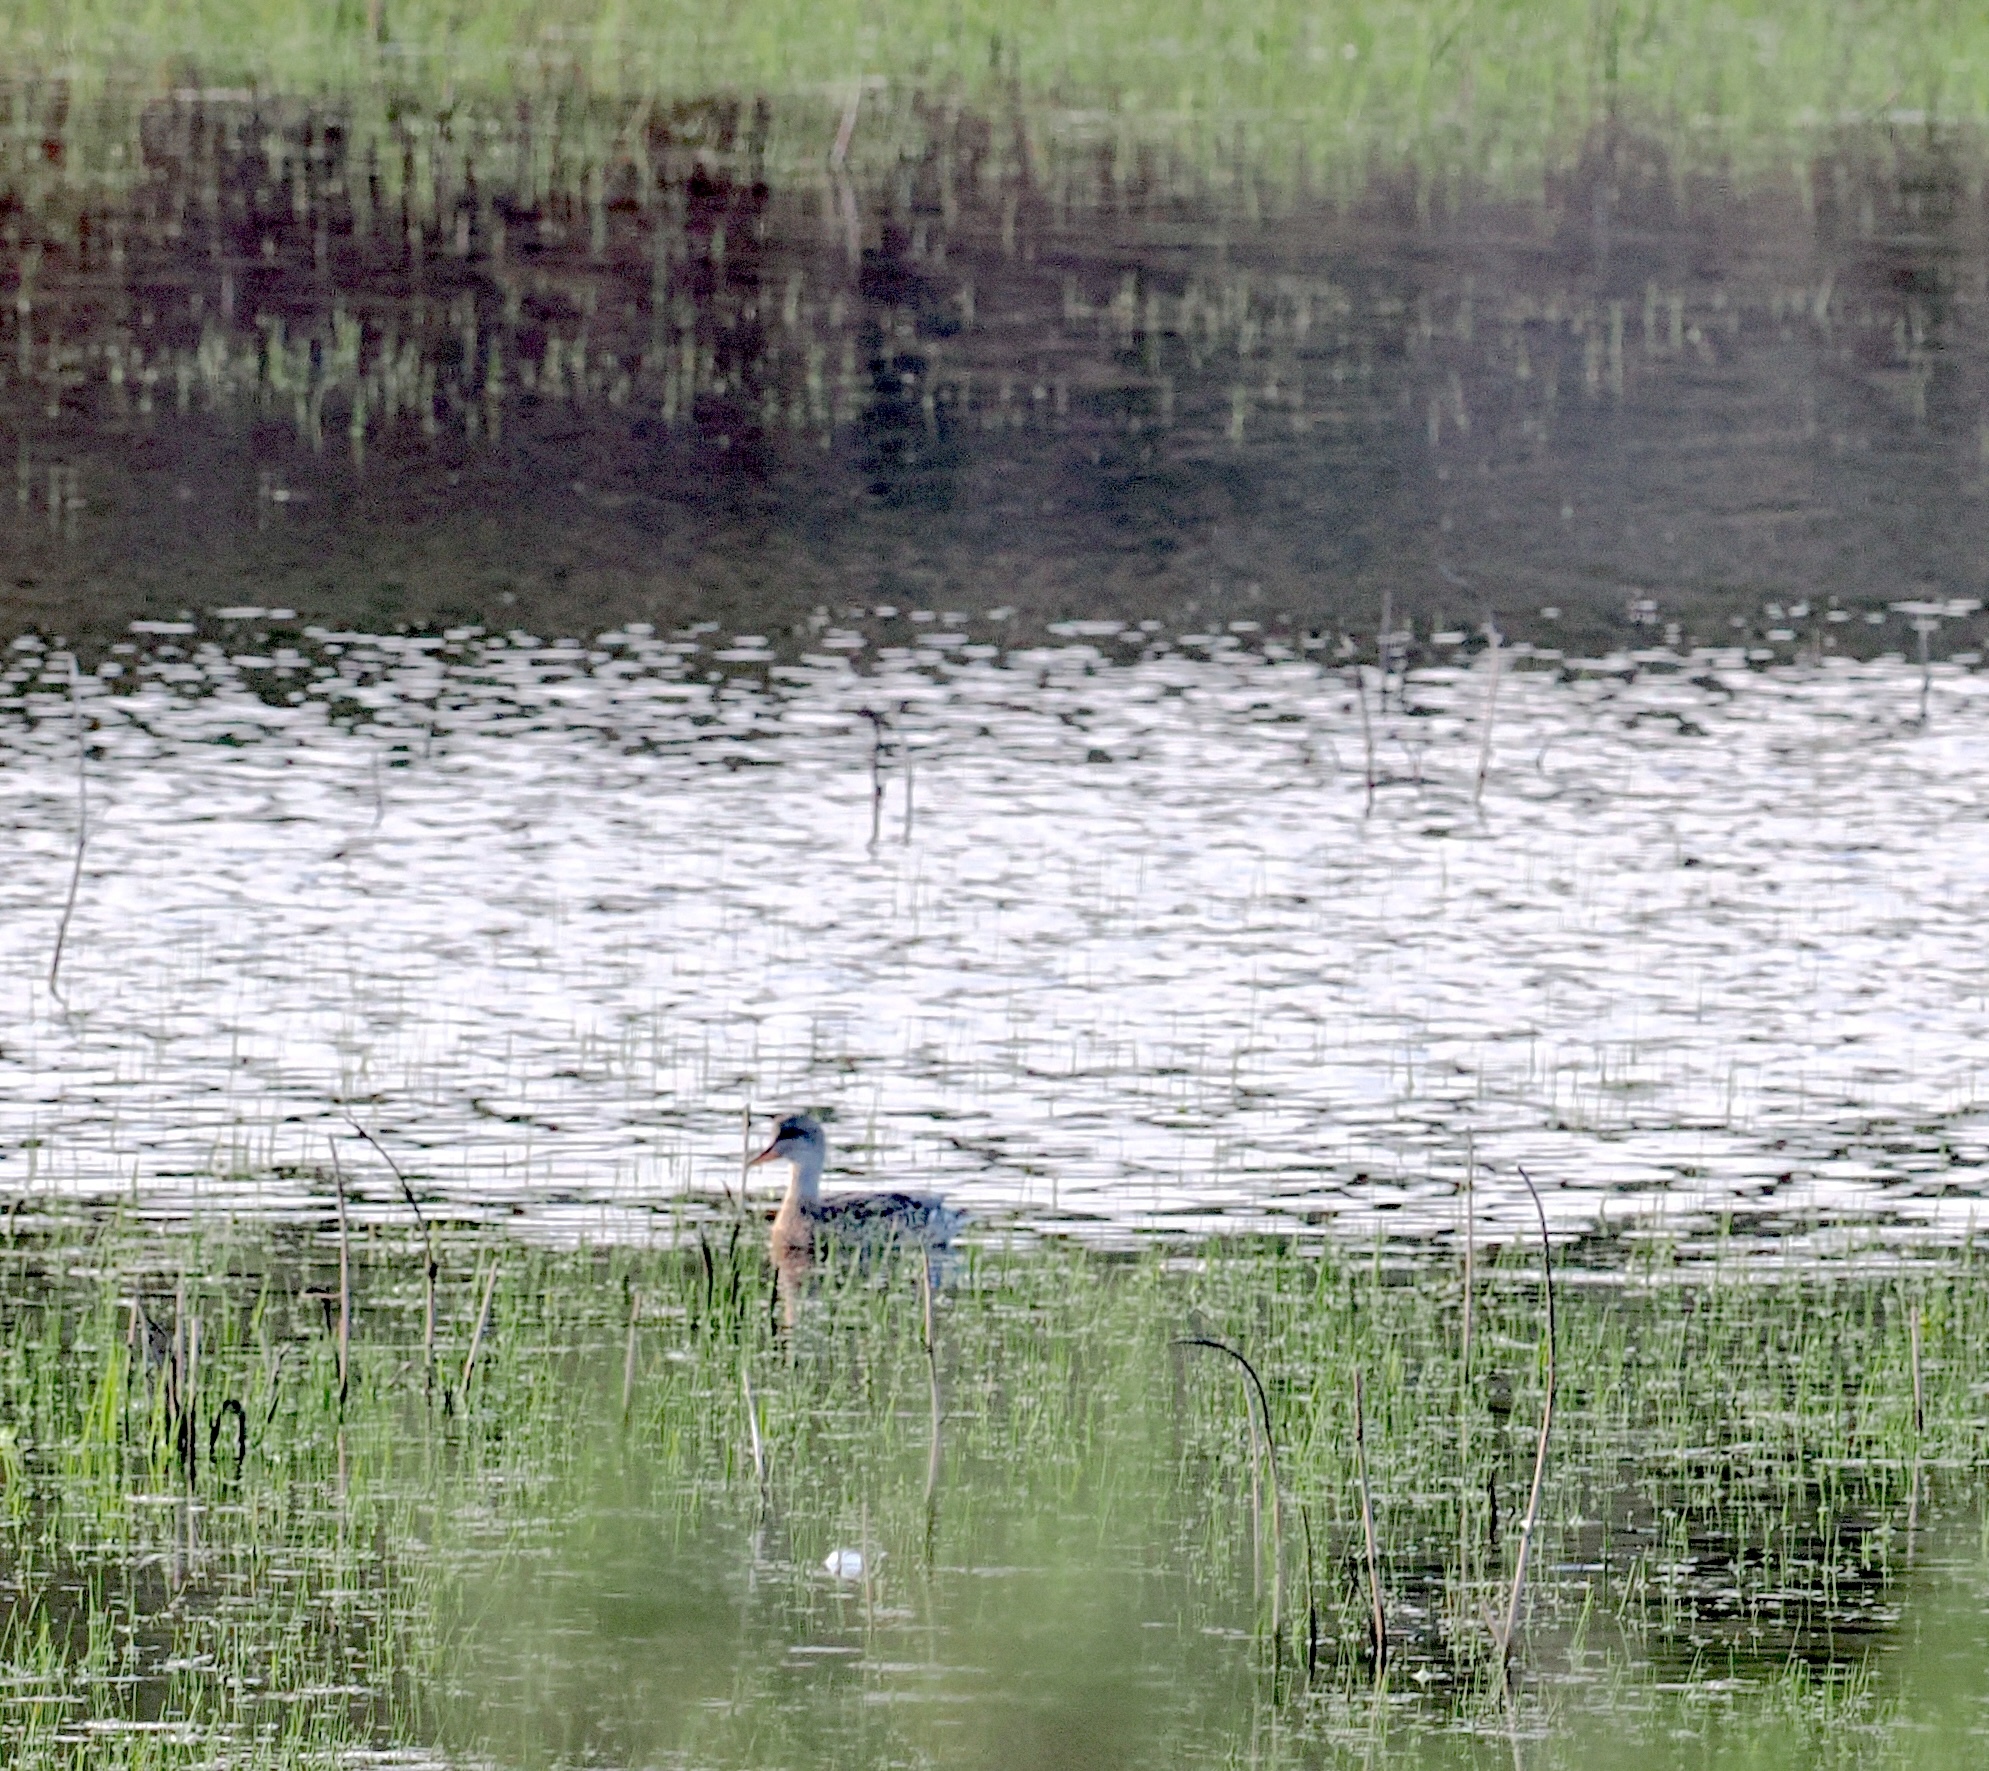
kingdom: Animalia
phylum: Chordata
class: Aves
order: Anseriformes
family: Anatidae
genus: Mareca
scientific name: Mareca strepera
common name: Gadwall
